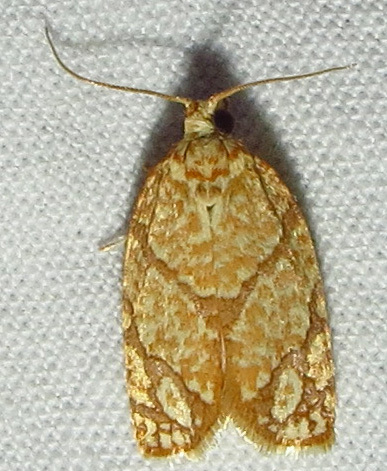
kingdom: Animalia
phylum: Arthropoda
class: Insecta
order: Lepidoptera
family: Tortricidae
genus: Argyrotaenia
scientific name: Argyrotaenia quercifoliana
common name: Yellow-winged oak leafroller moth
